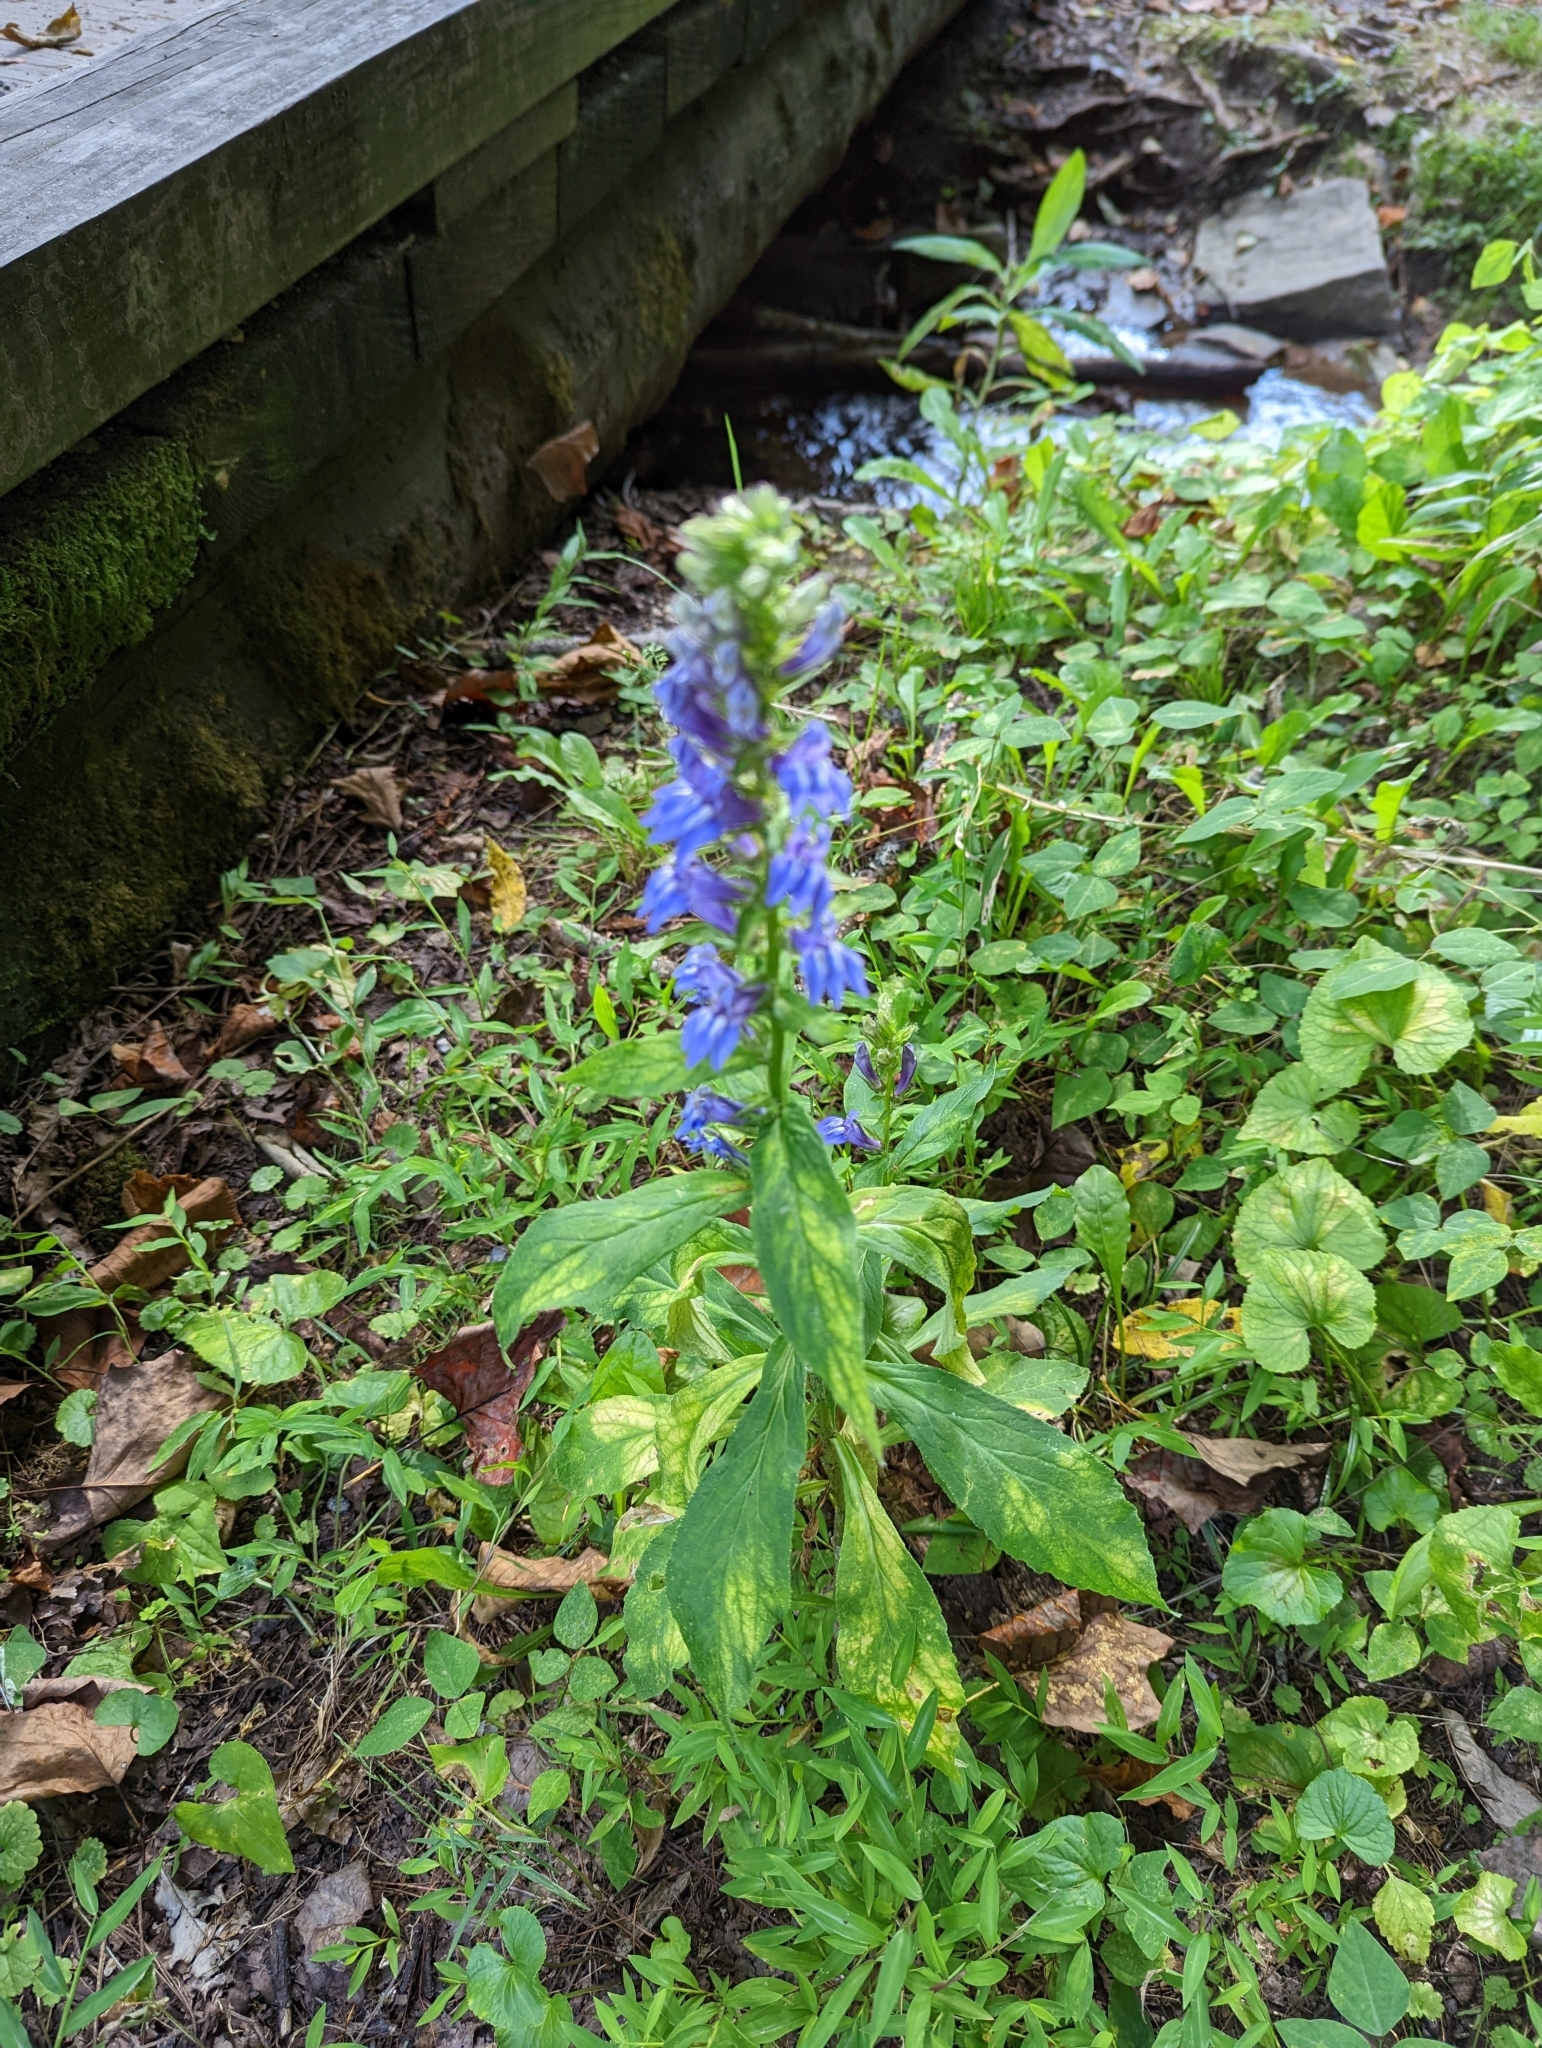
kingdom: Plantae
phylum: Tracheophyta
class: Magnoliopsida
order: Asterales
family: Campanulaceae
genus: Lobelia
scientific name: Lobelia siphilitica
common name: Great lobelia
